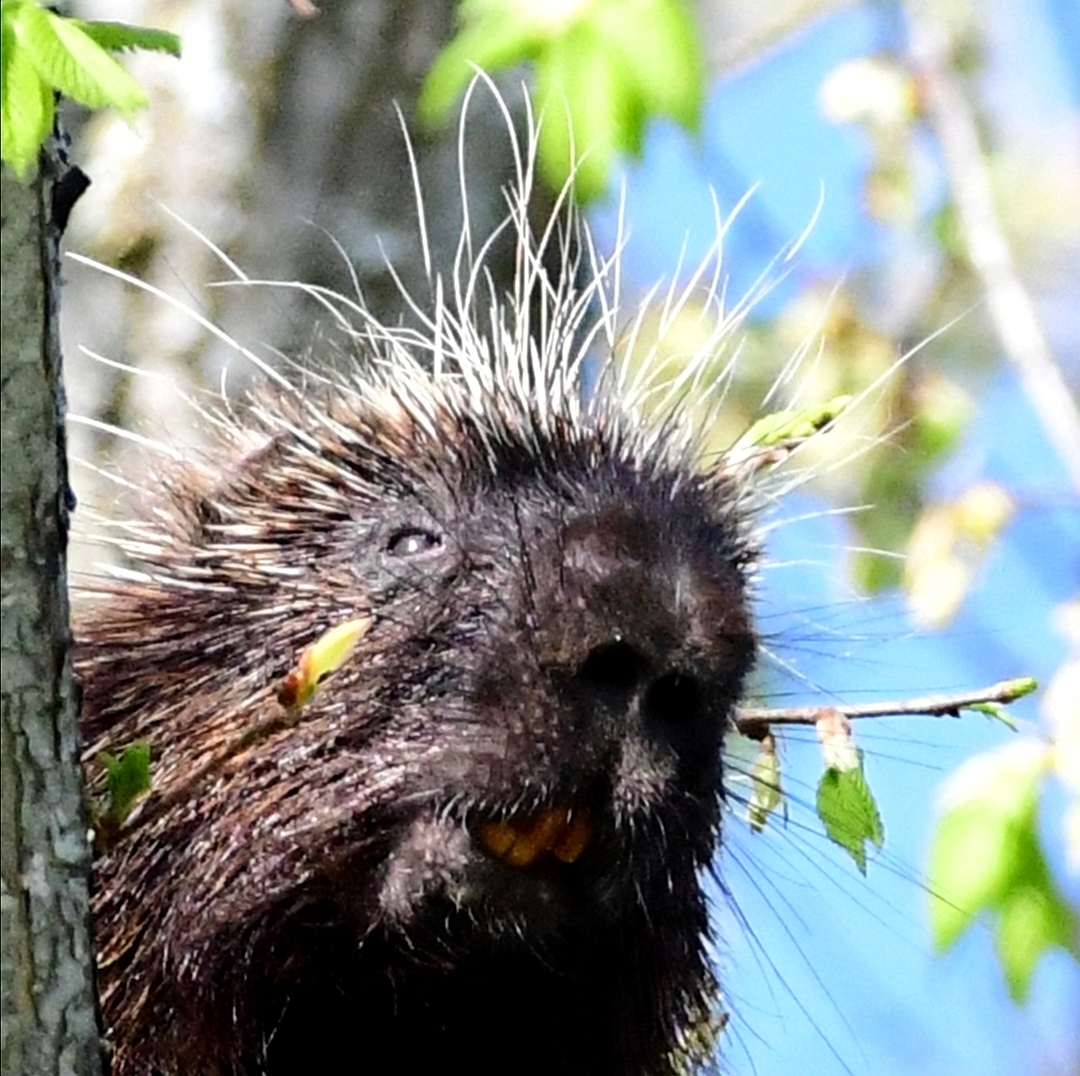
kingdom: Animalia
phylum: Chordata
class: Mammalia
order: Rodentia
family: Erethizontidae
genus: Erethizon
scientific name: Erethizon dorsatus
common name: North american porcupine
